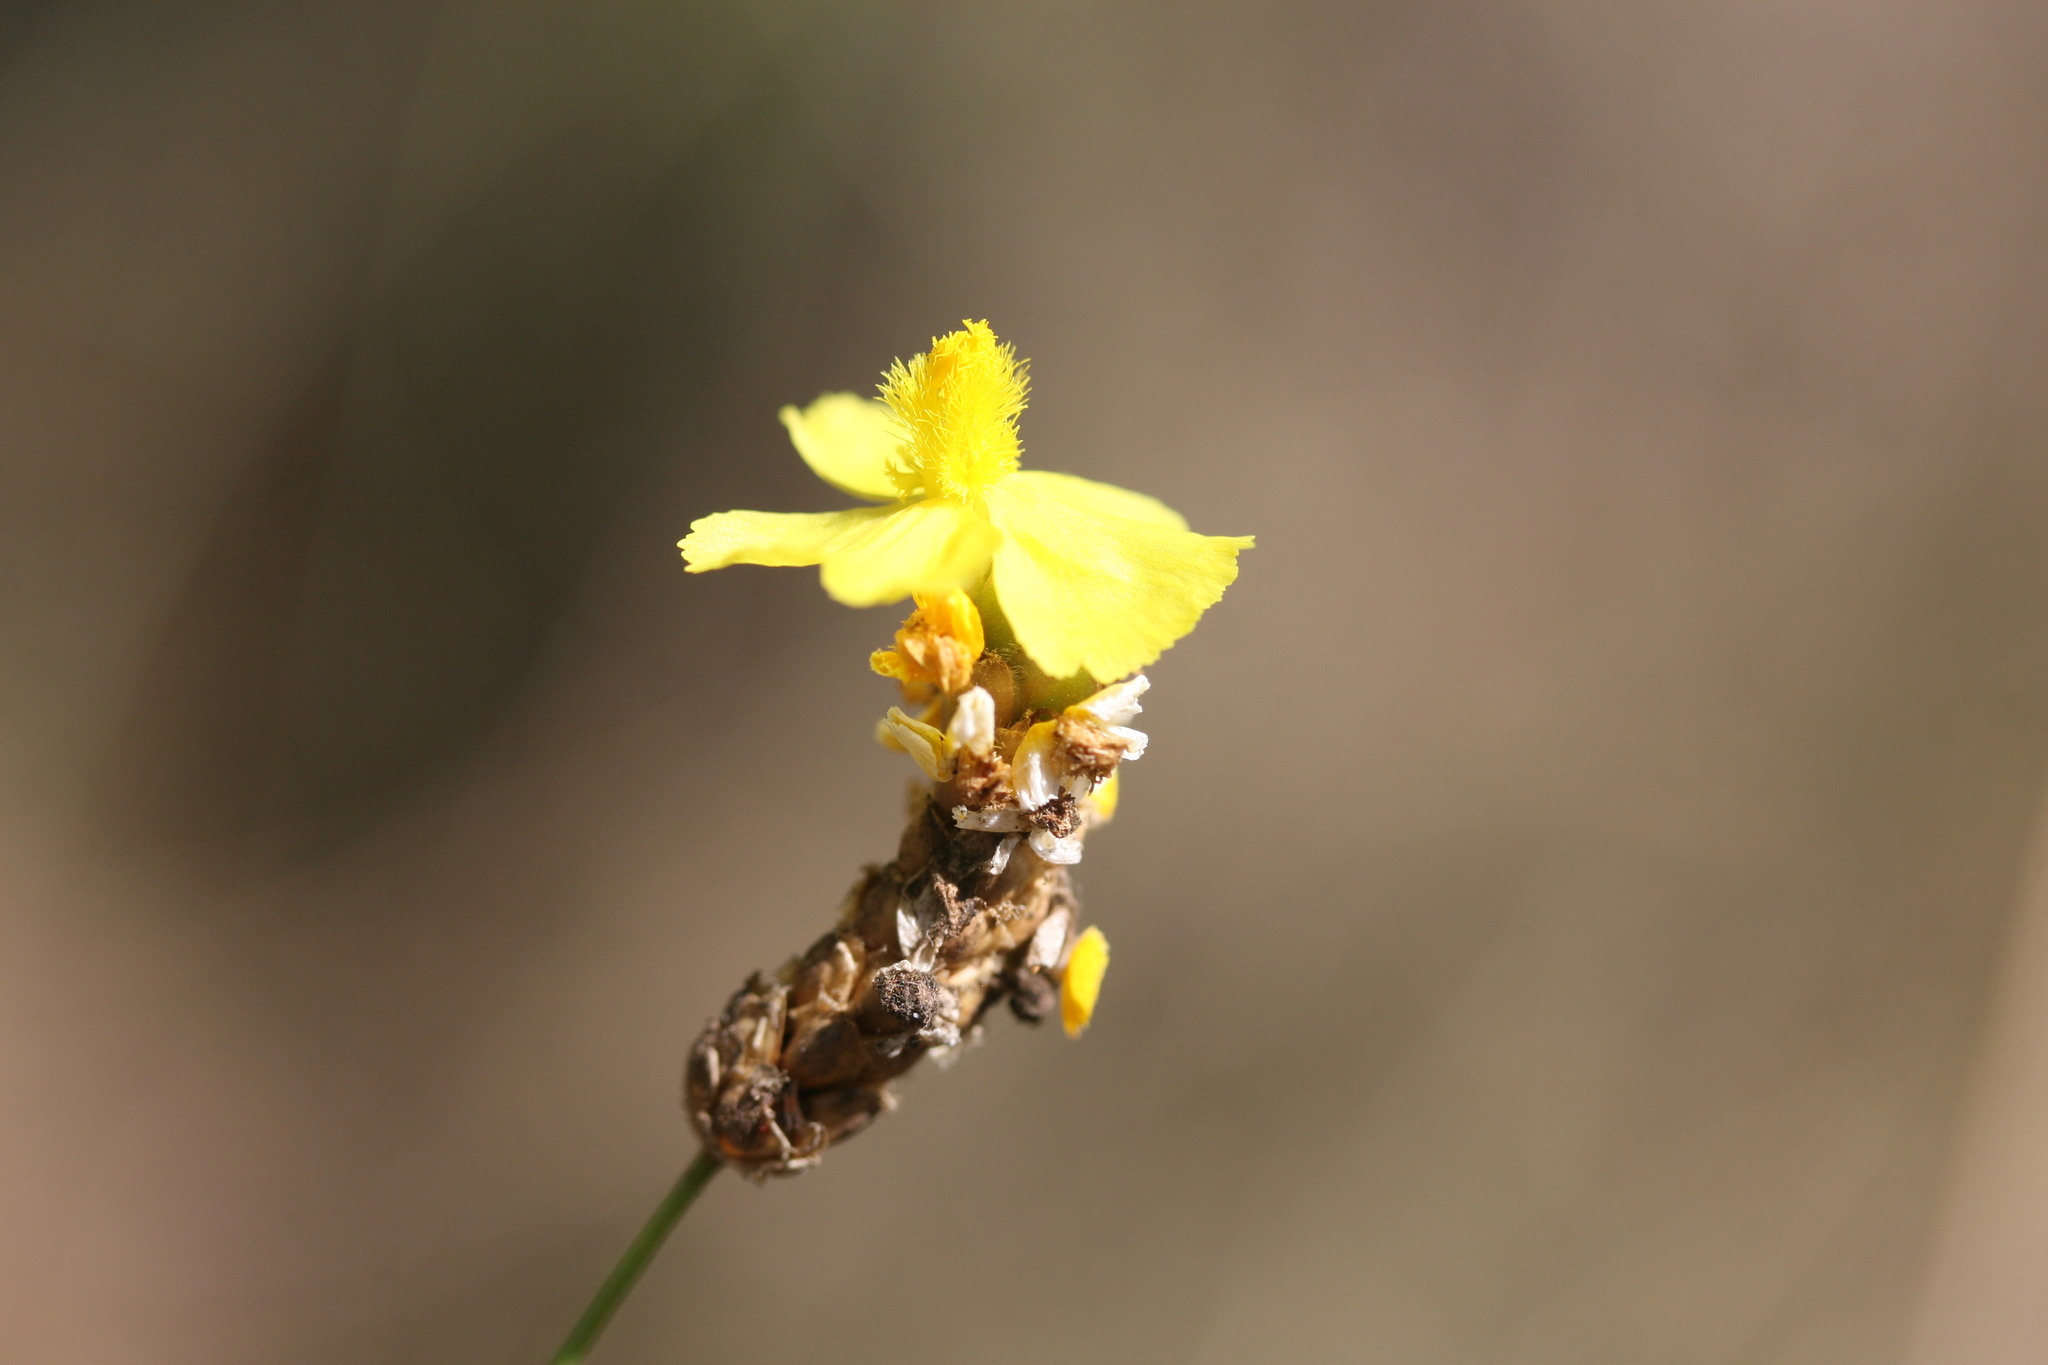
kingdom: Plantae
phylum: Tracheophyta
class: Liliopsida
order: Poales
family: Xyridaceae
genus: Xyris
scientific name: Xyris complanata
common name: Hawai'i yelloweyed grass
